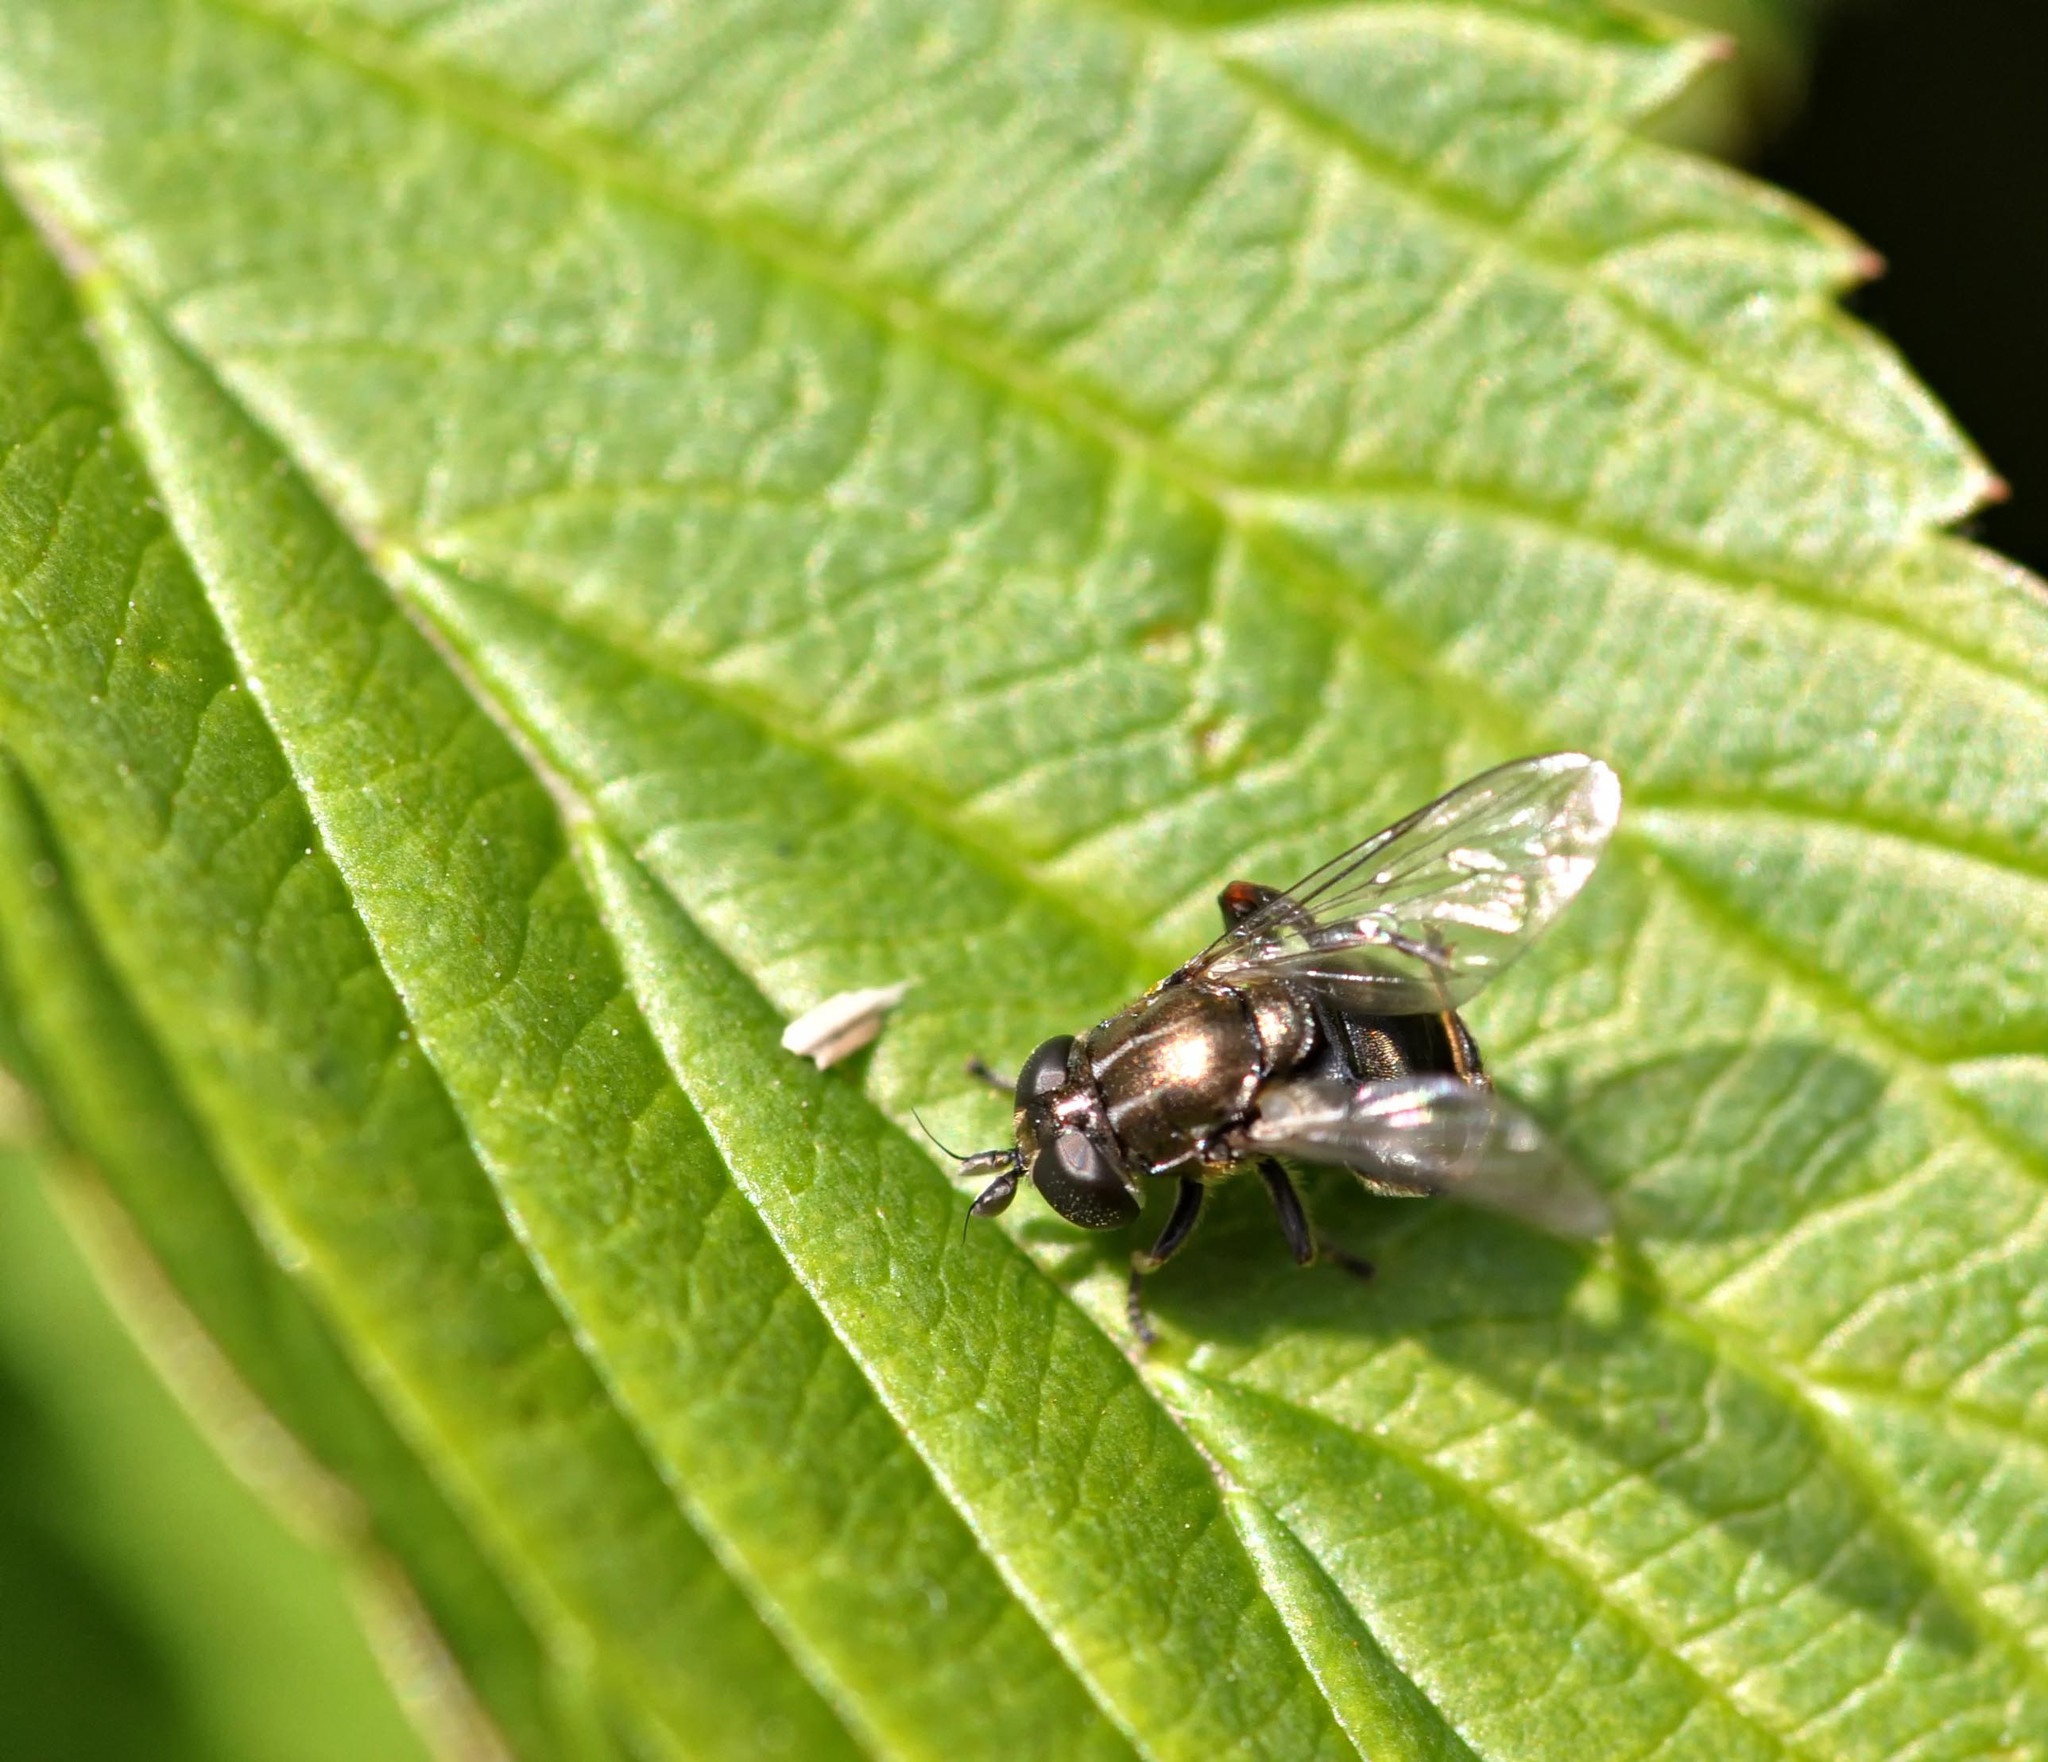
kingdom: Animalia
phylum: Arthropoda
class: Insecta
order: Diptera
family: Syrphidae
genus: Eumerus
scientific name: Eumerus
